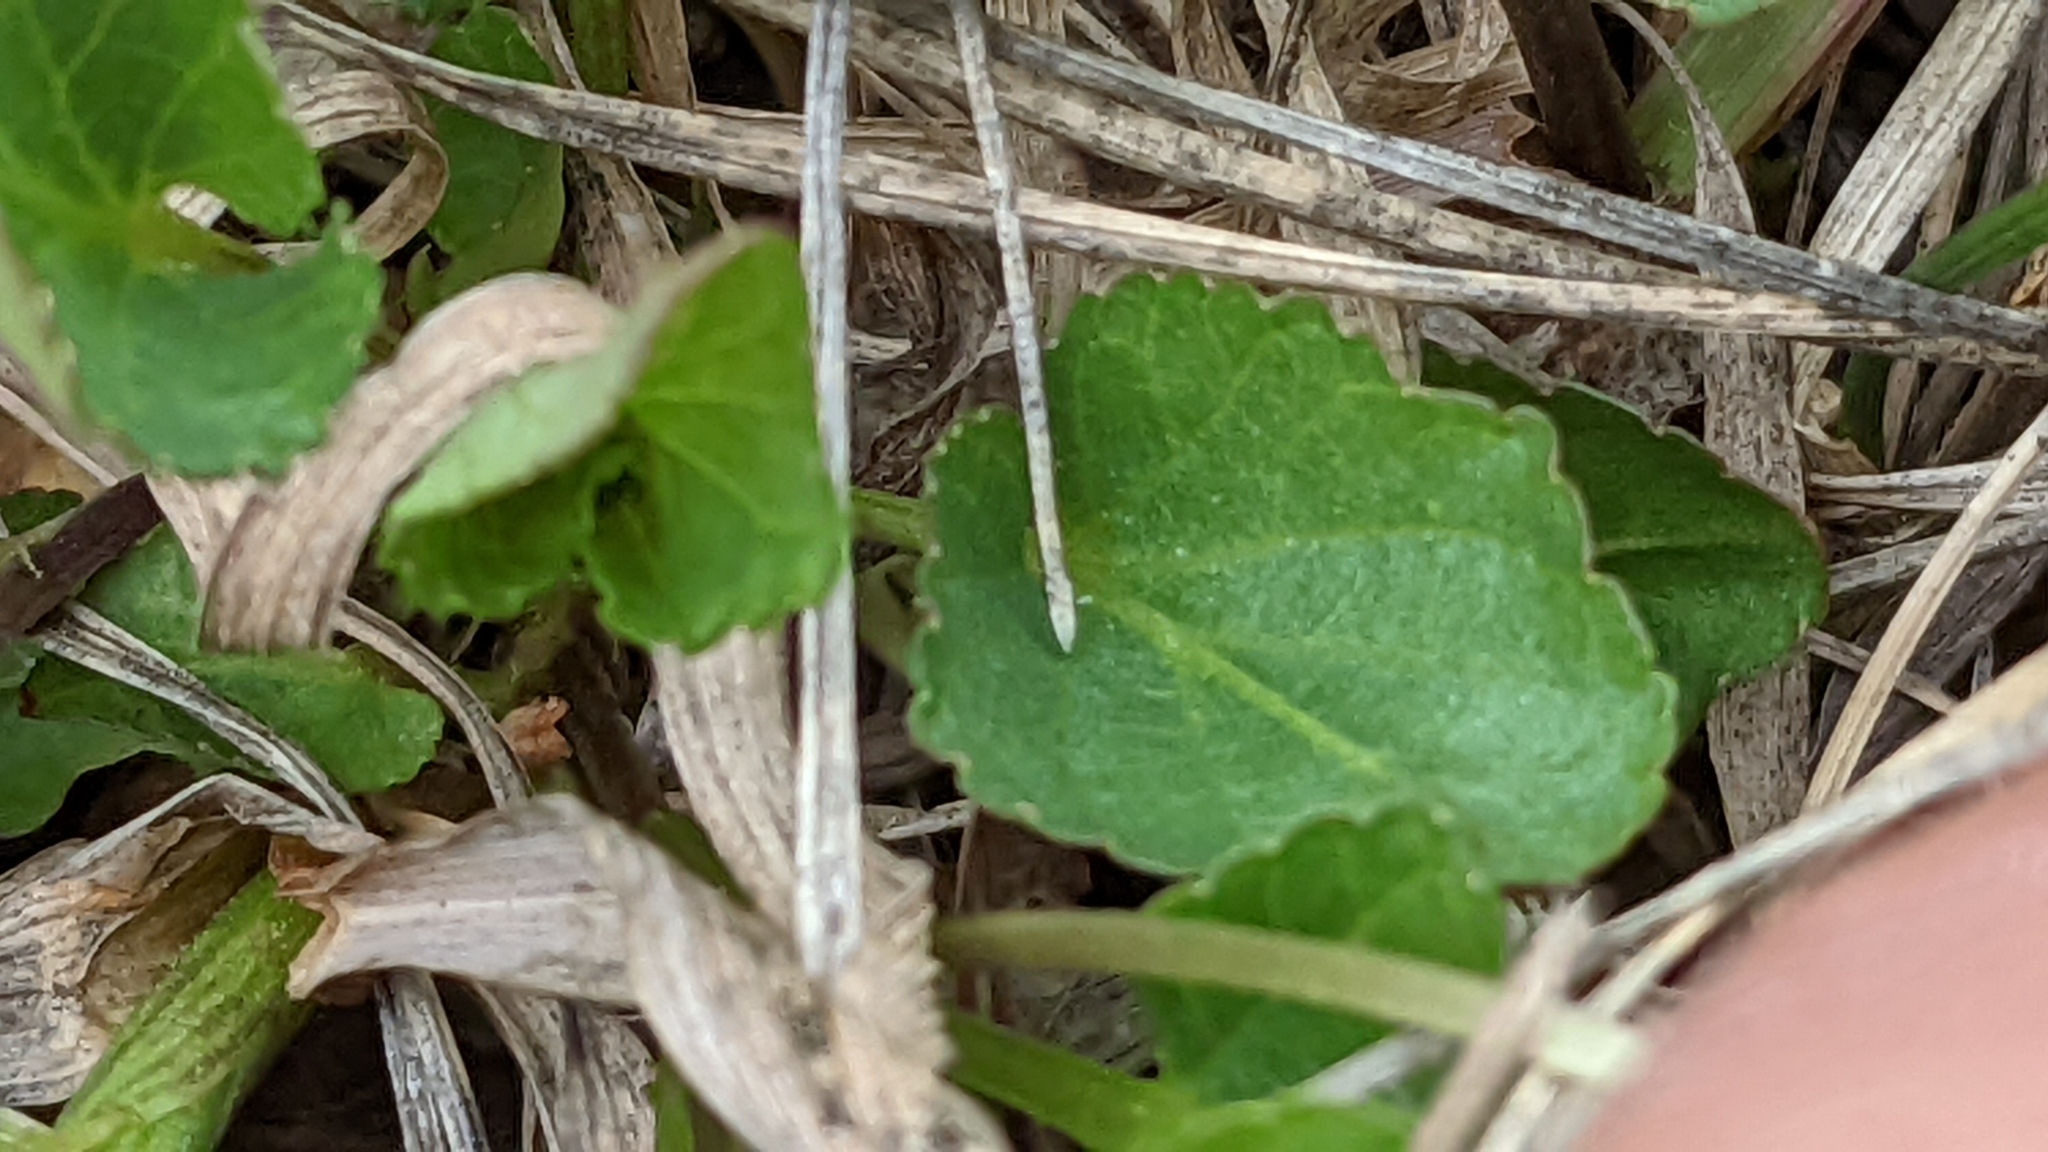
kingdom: Plantae
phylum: Tracheophyta
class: Magnoliopsida
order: Malpighiales
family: Violaceae
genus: Viola
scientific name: Viola adunca
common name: Sand violet
